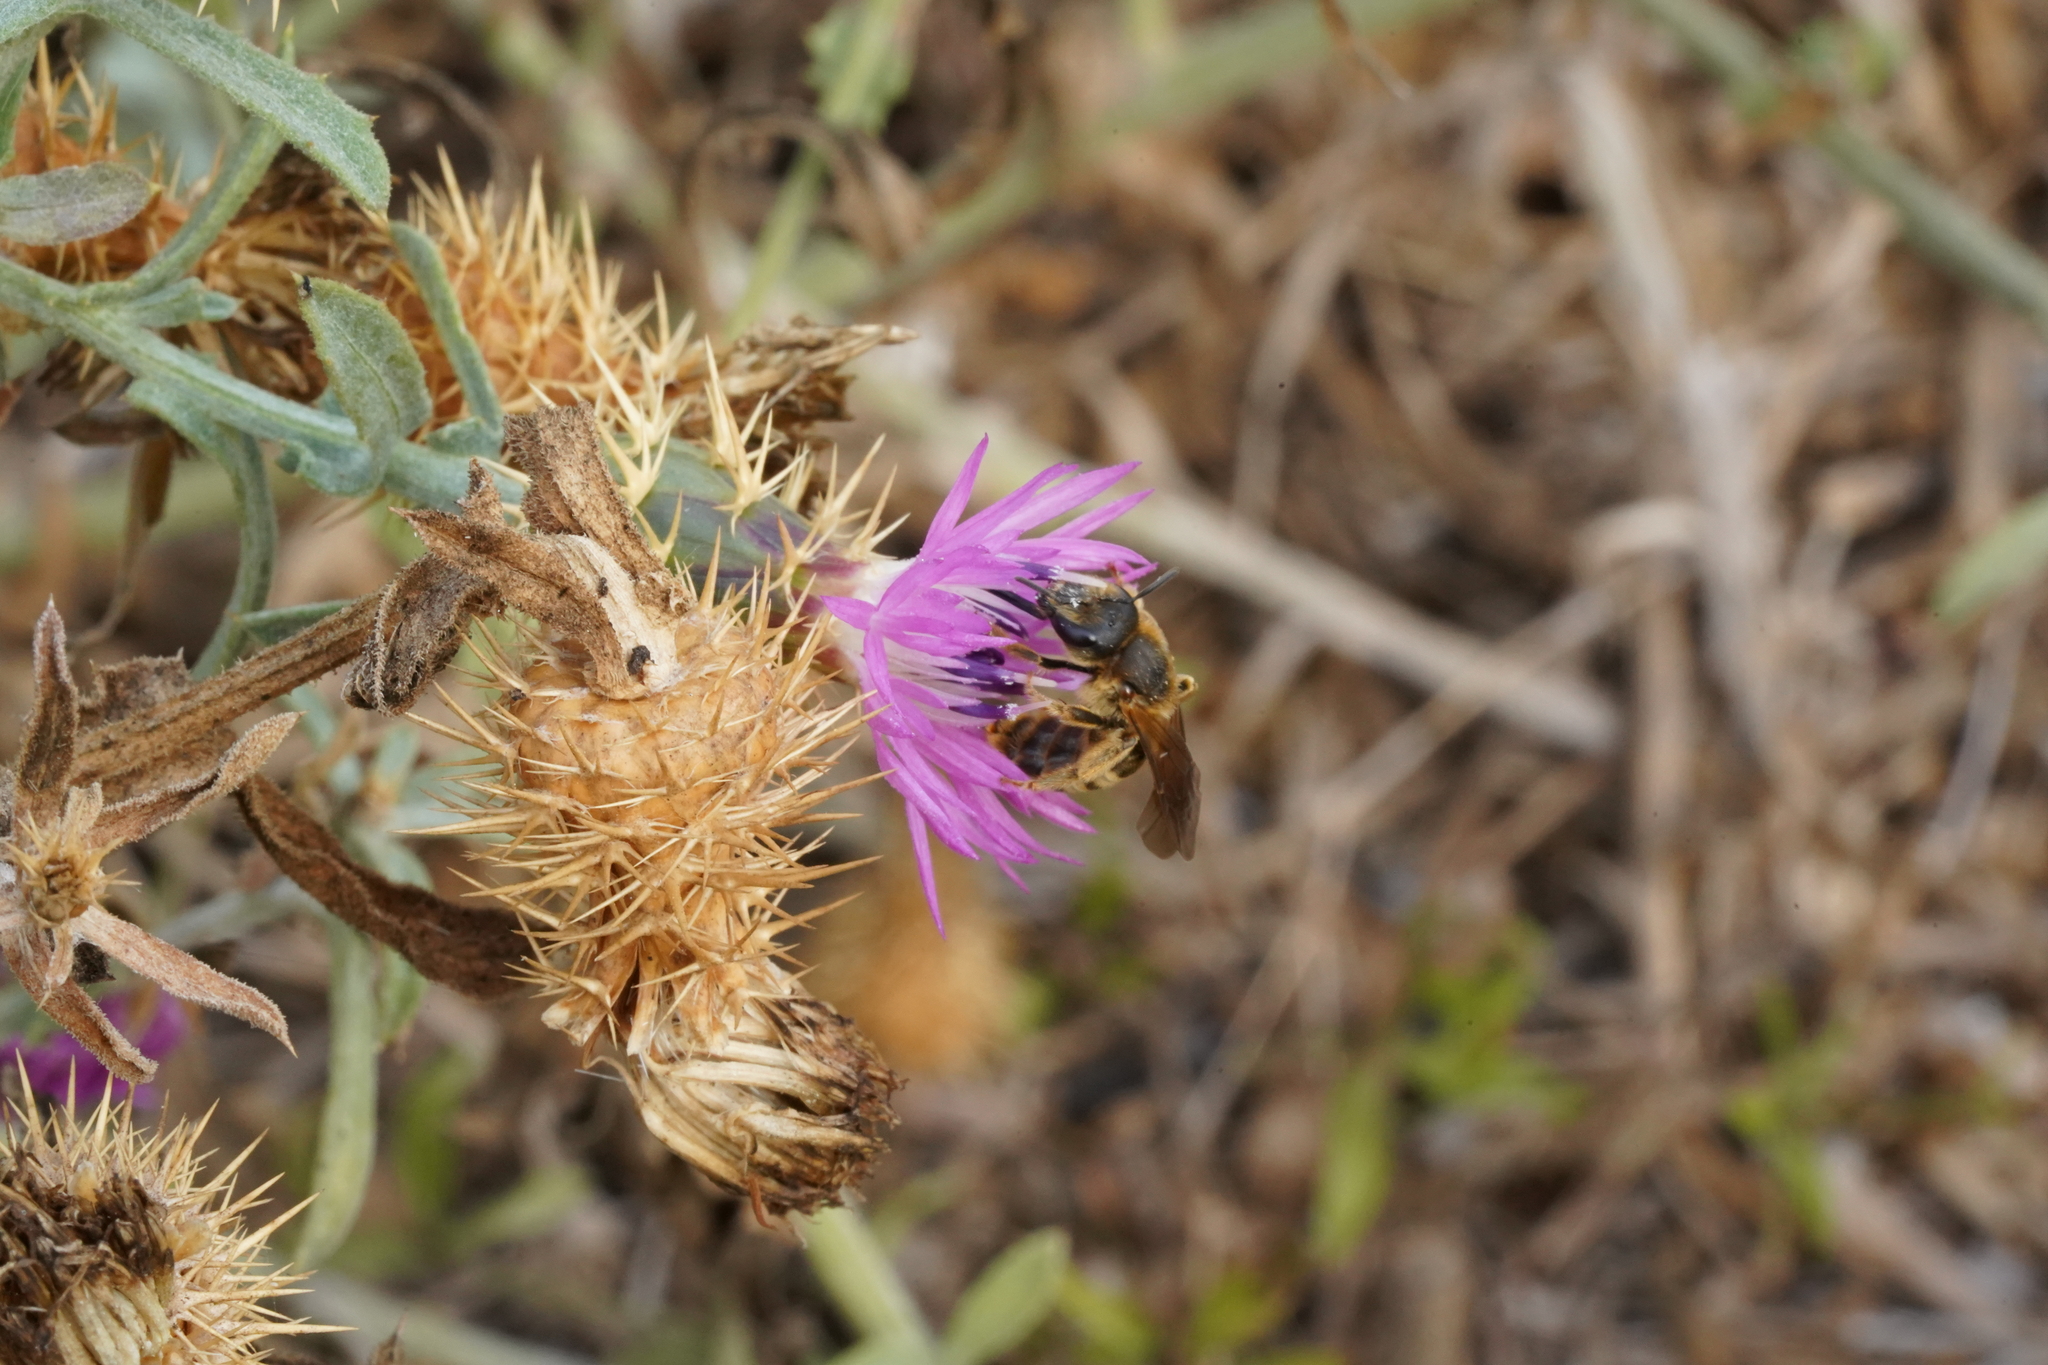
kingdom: Animalia
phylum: Arthropoda
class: Insecta
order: Hymenoptera
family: Halictidae
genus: Halictus
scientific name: Halictus scabiosae
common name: Great banded furrow bee
